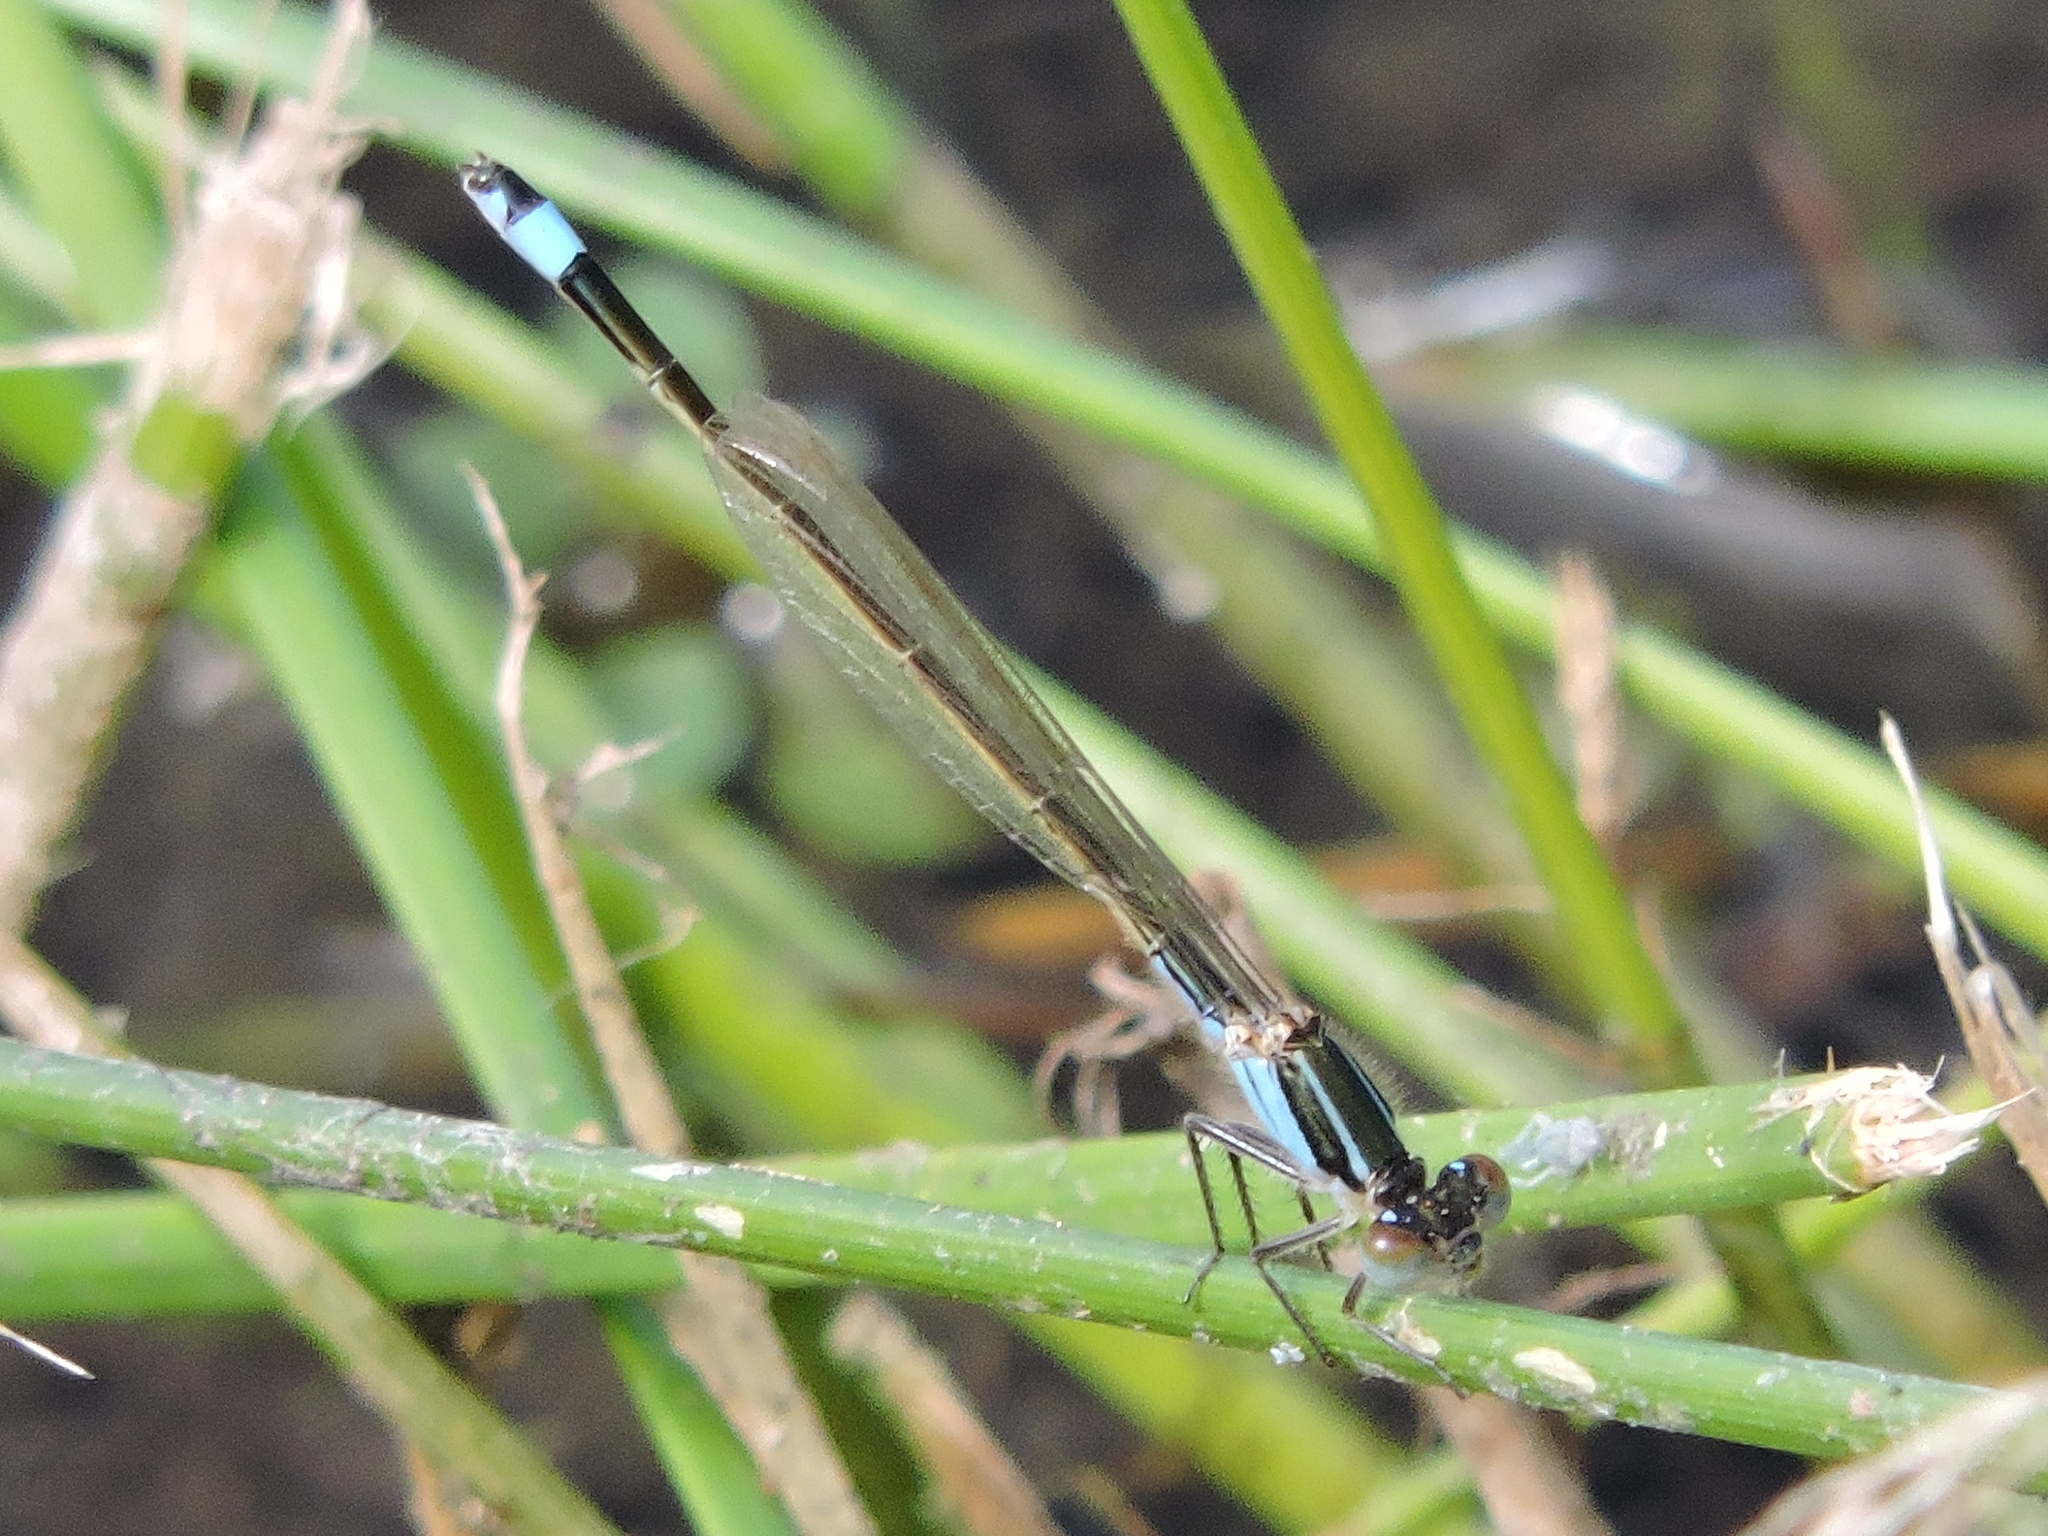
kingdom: Animalia
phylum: Arthropoda
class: Insecta
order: Odonata
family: Coenagrionidae
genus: Ischnura
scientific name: Ischnura ramburii
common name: Rambur's forktail
